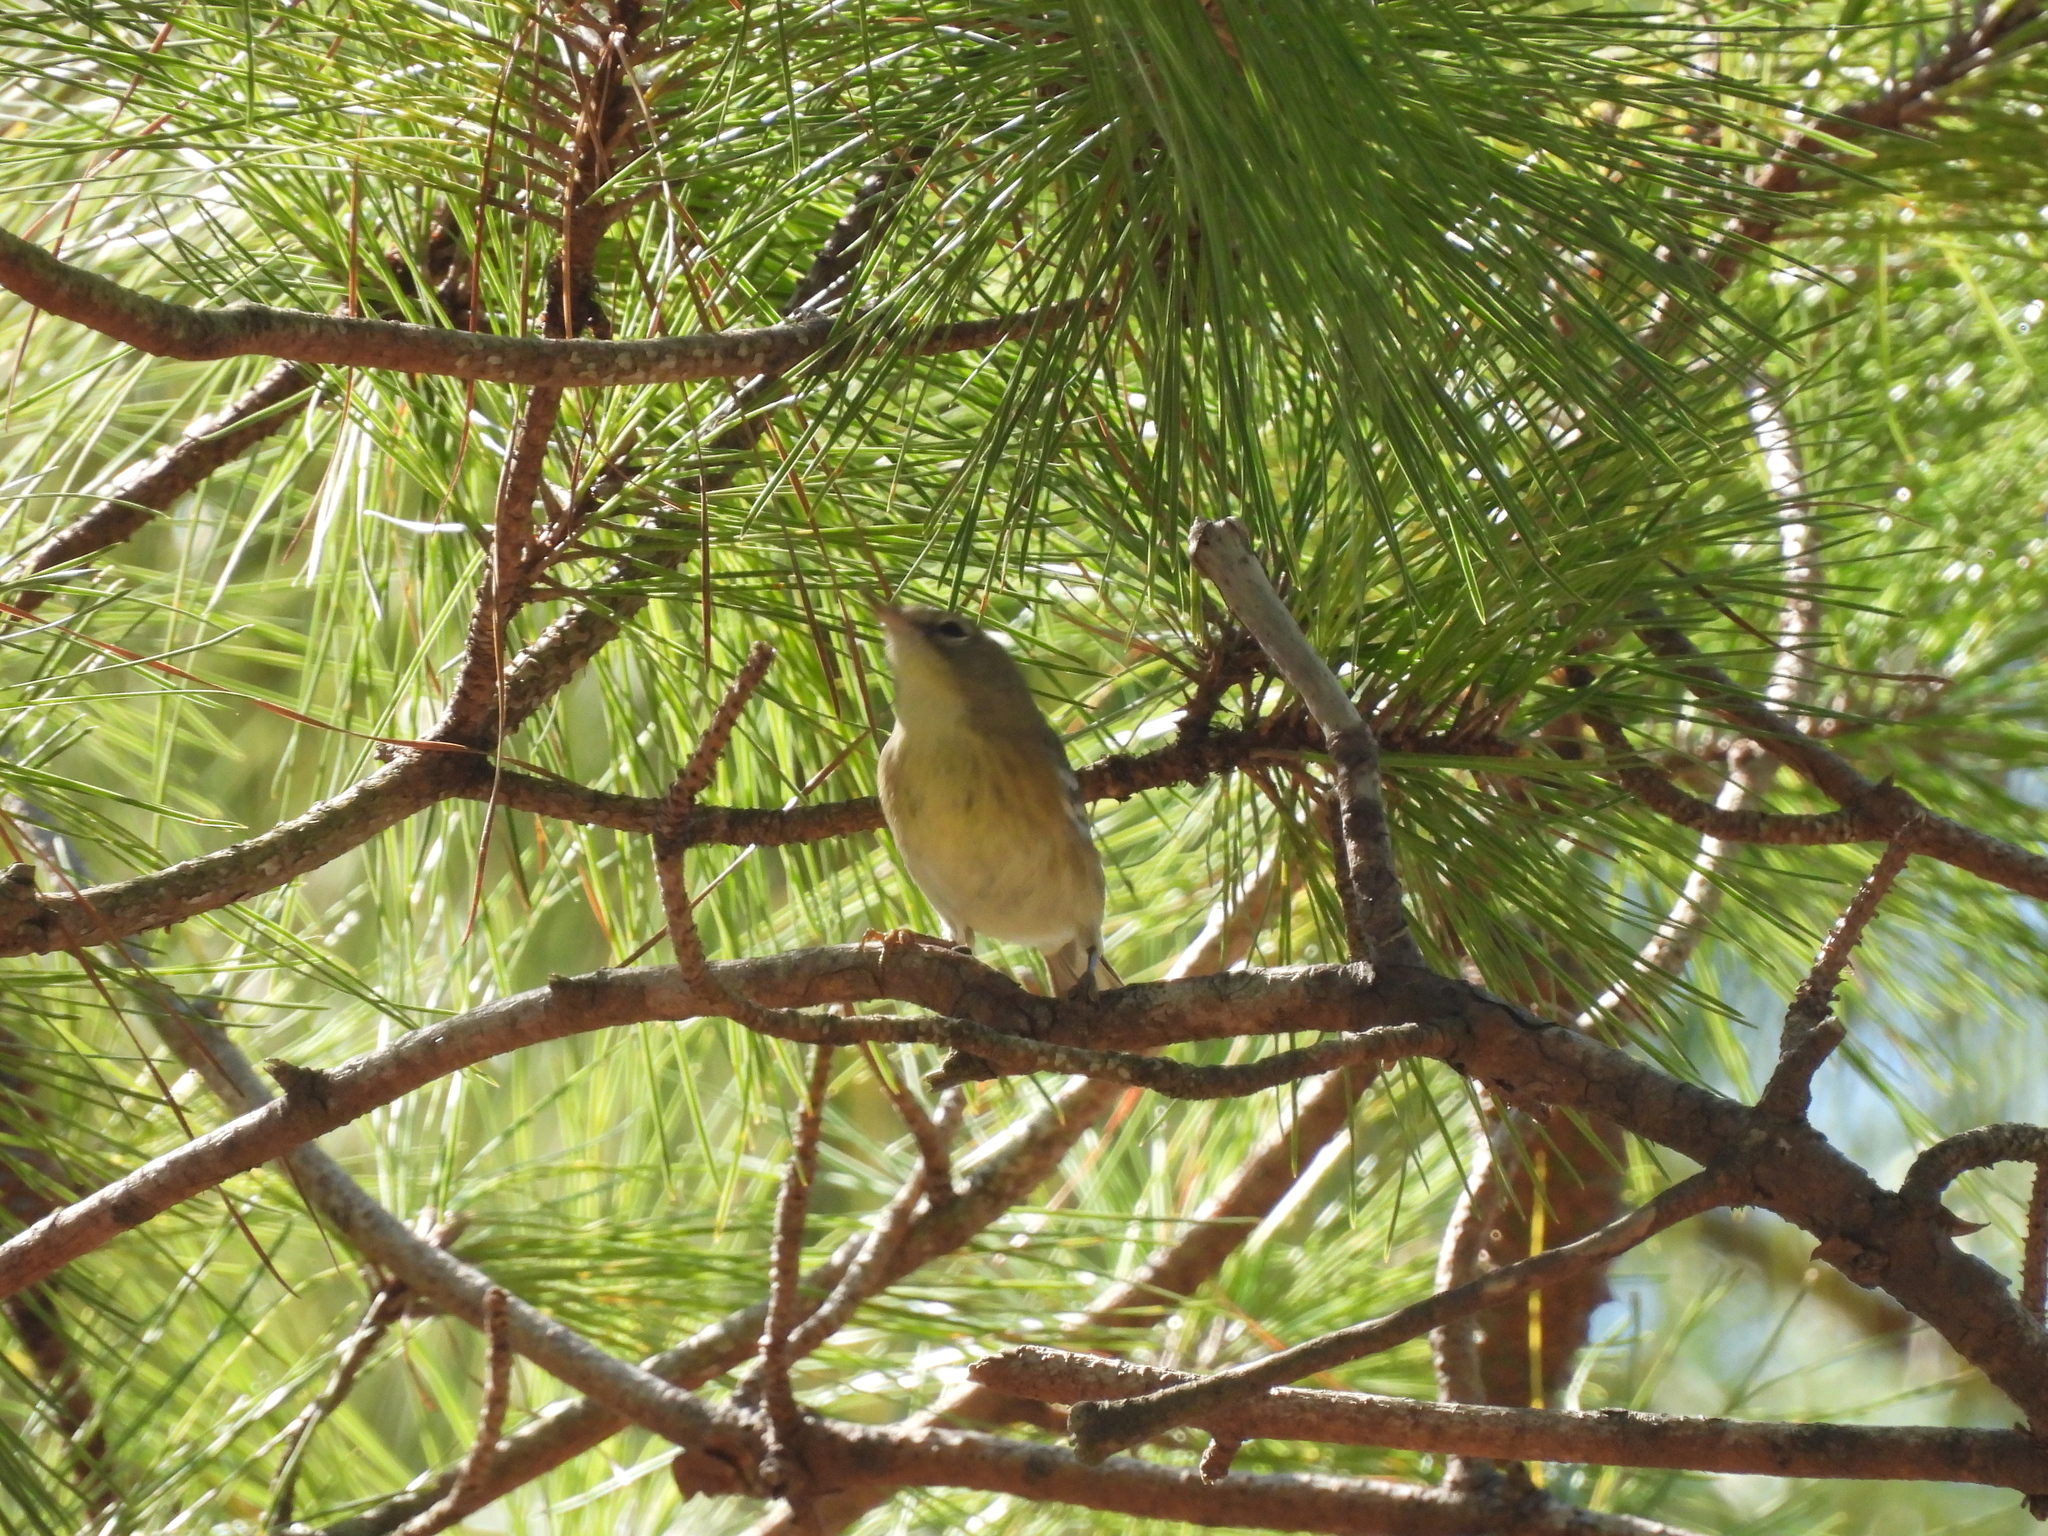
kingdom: Animalia
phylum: Chordata
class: Aves
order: Passeriformes
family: Parulidae
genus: Setophaga
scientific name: Setophaga pinus
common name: Pine warbler
